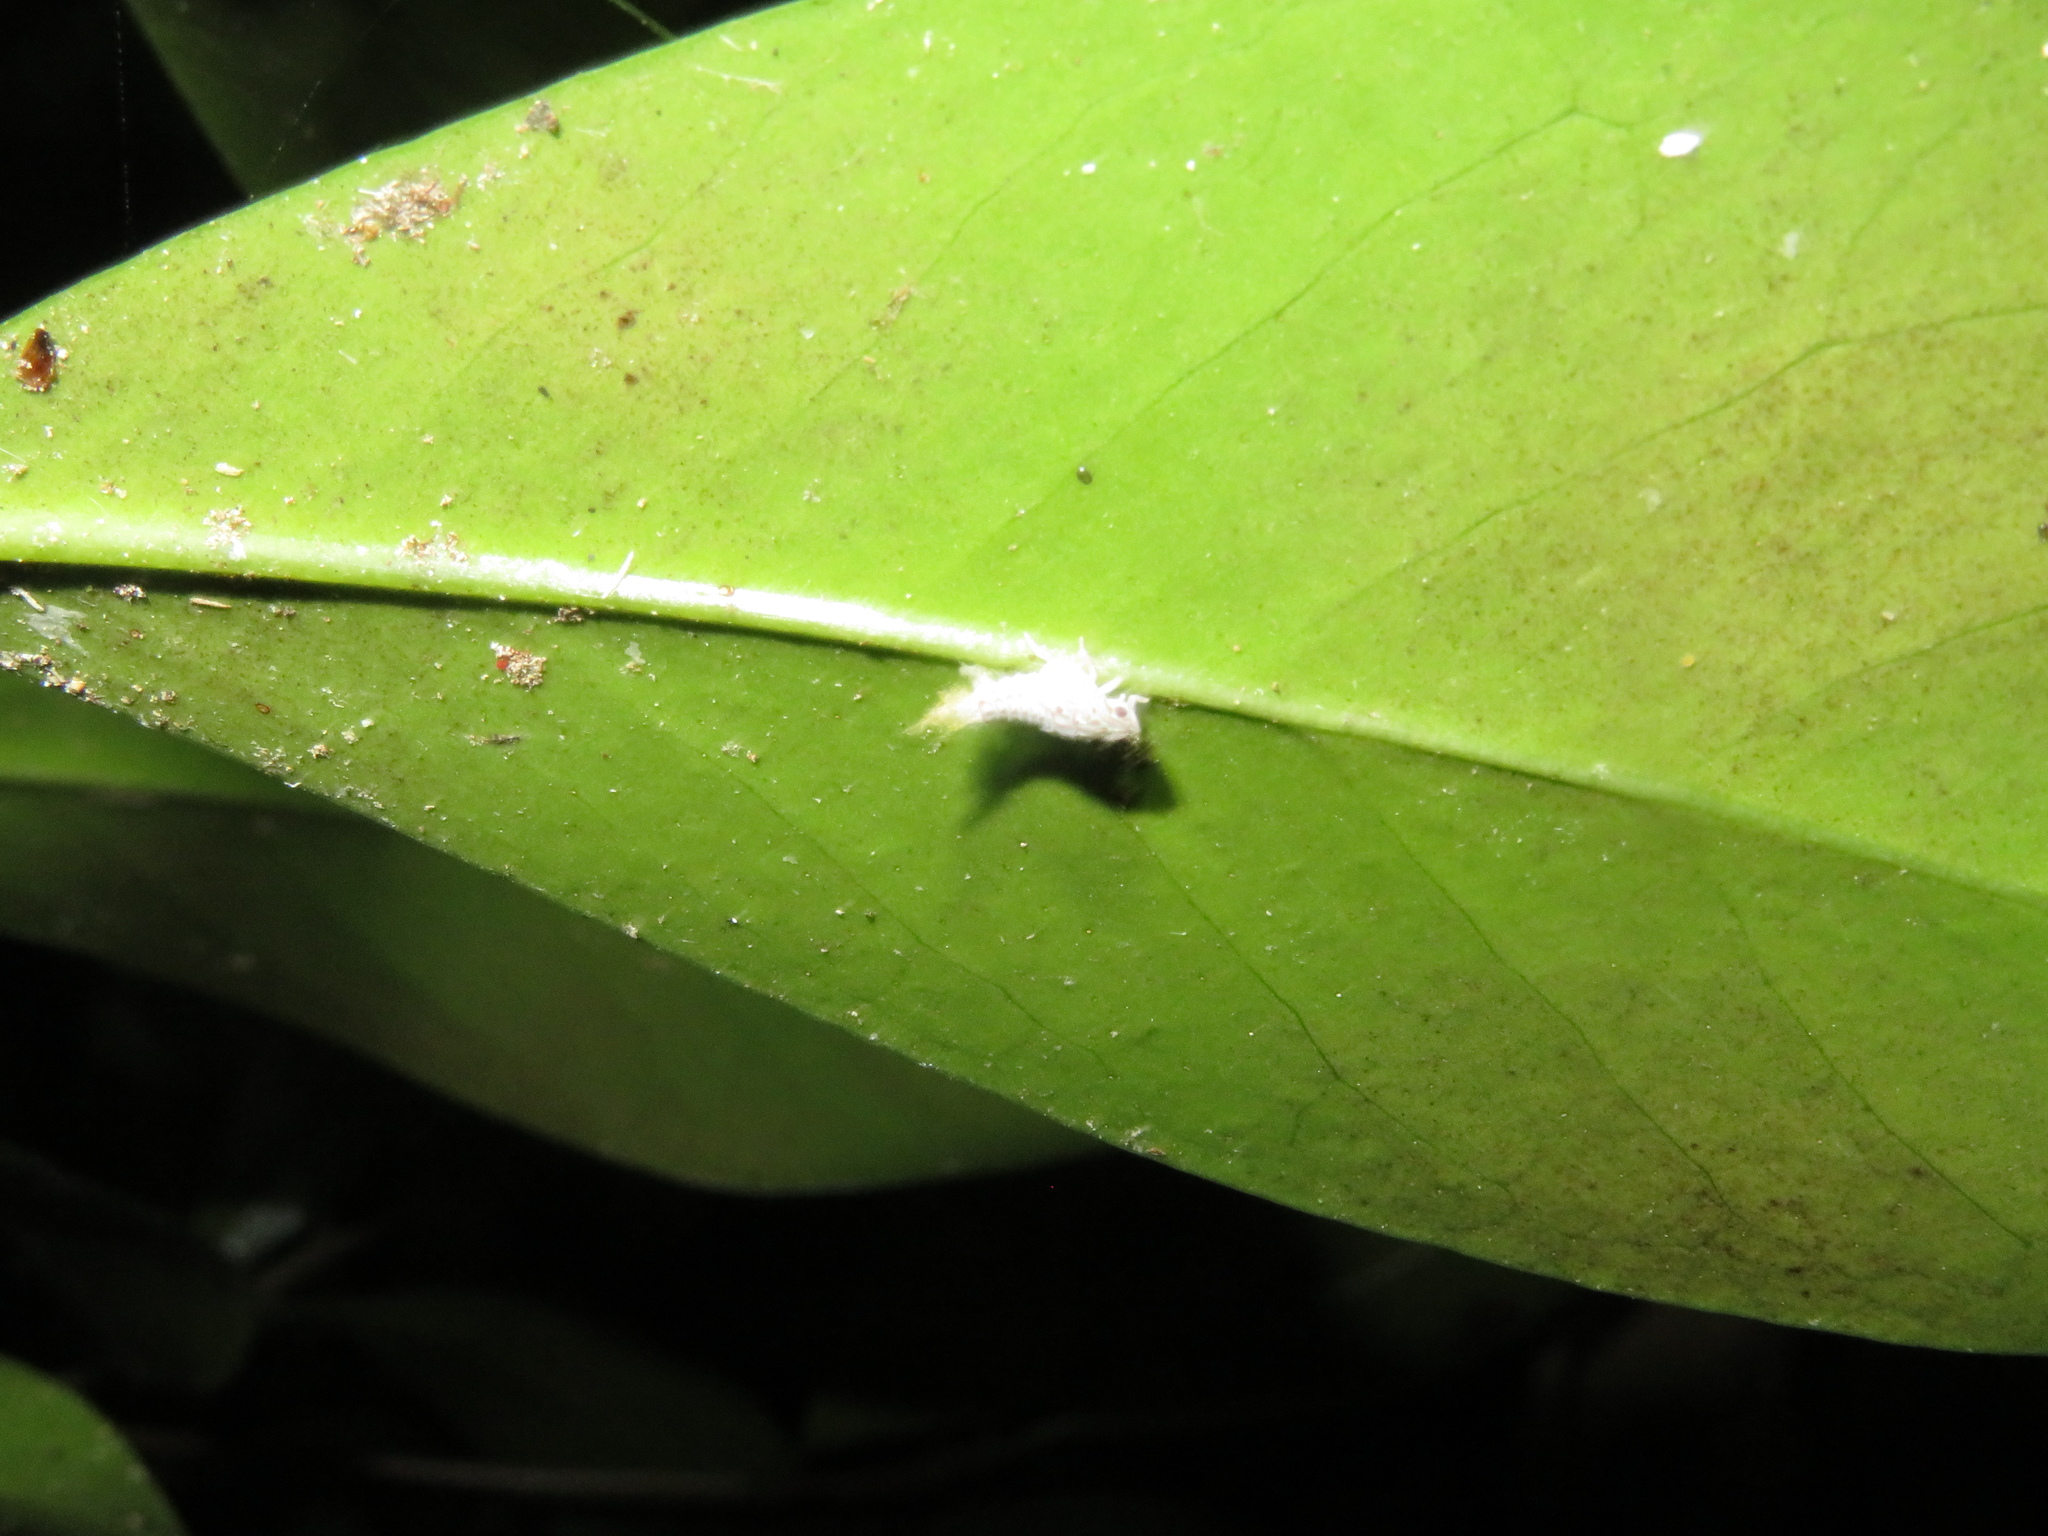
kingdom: Animalia
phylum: Arthropoda
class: Insecta
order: Hemiptera
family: Flatidae
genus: Siphanta
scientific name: Siphanta acuta
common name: Torpedo bug
